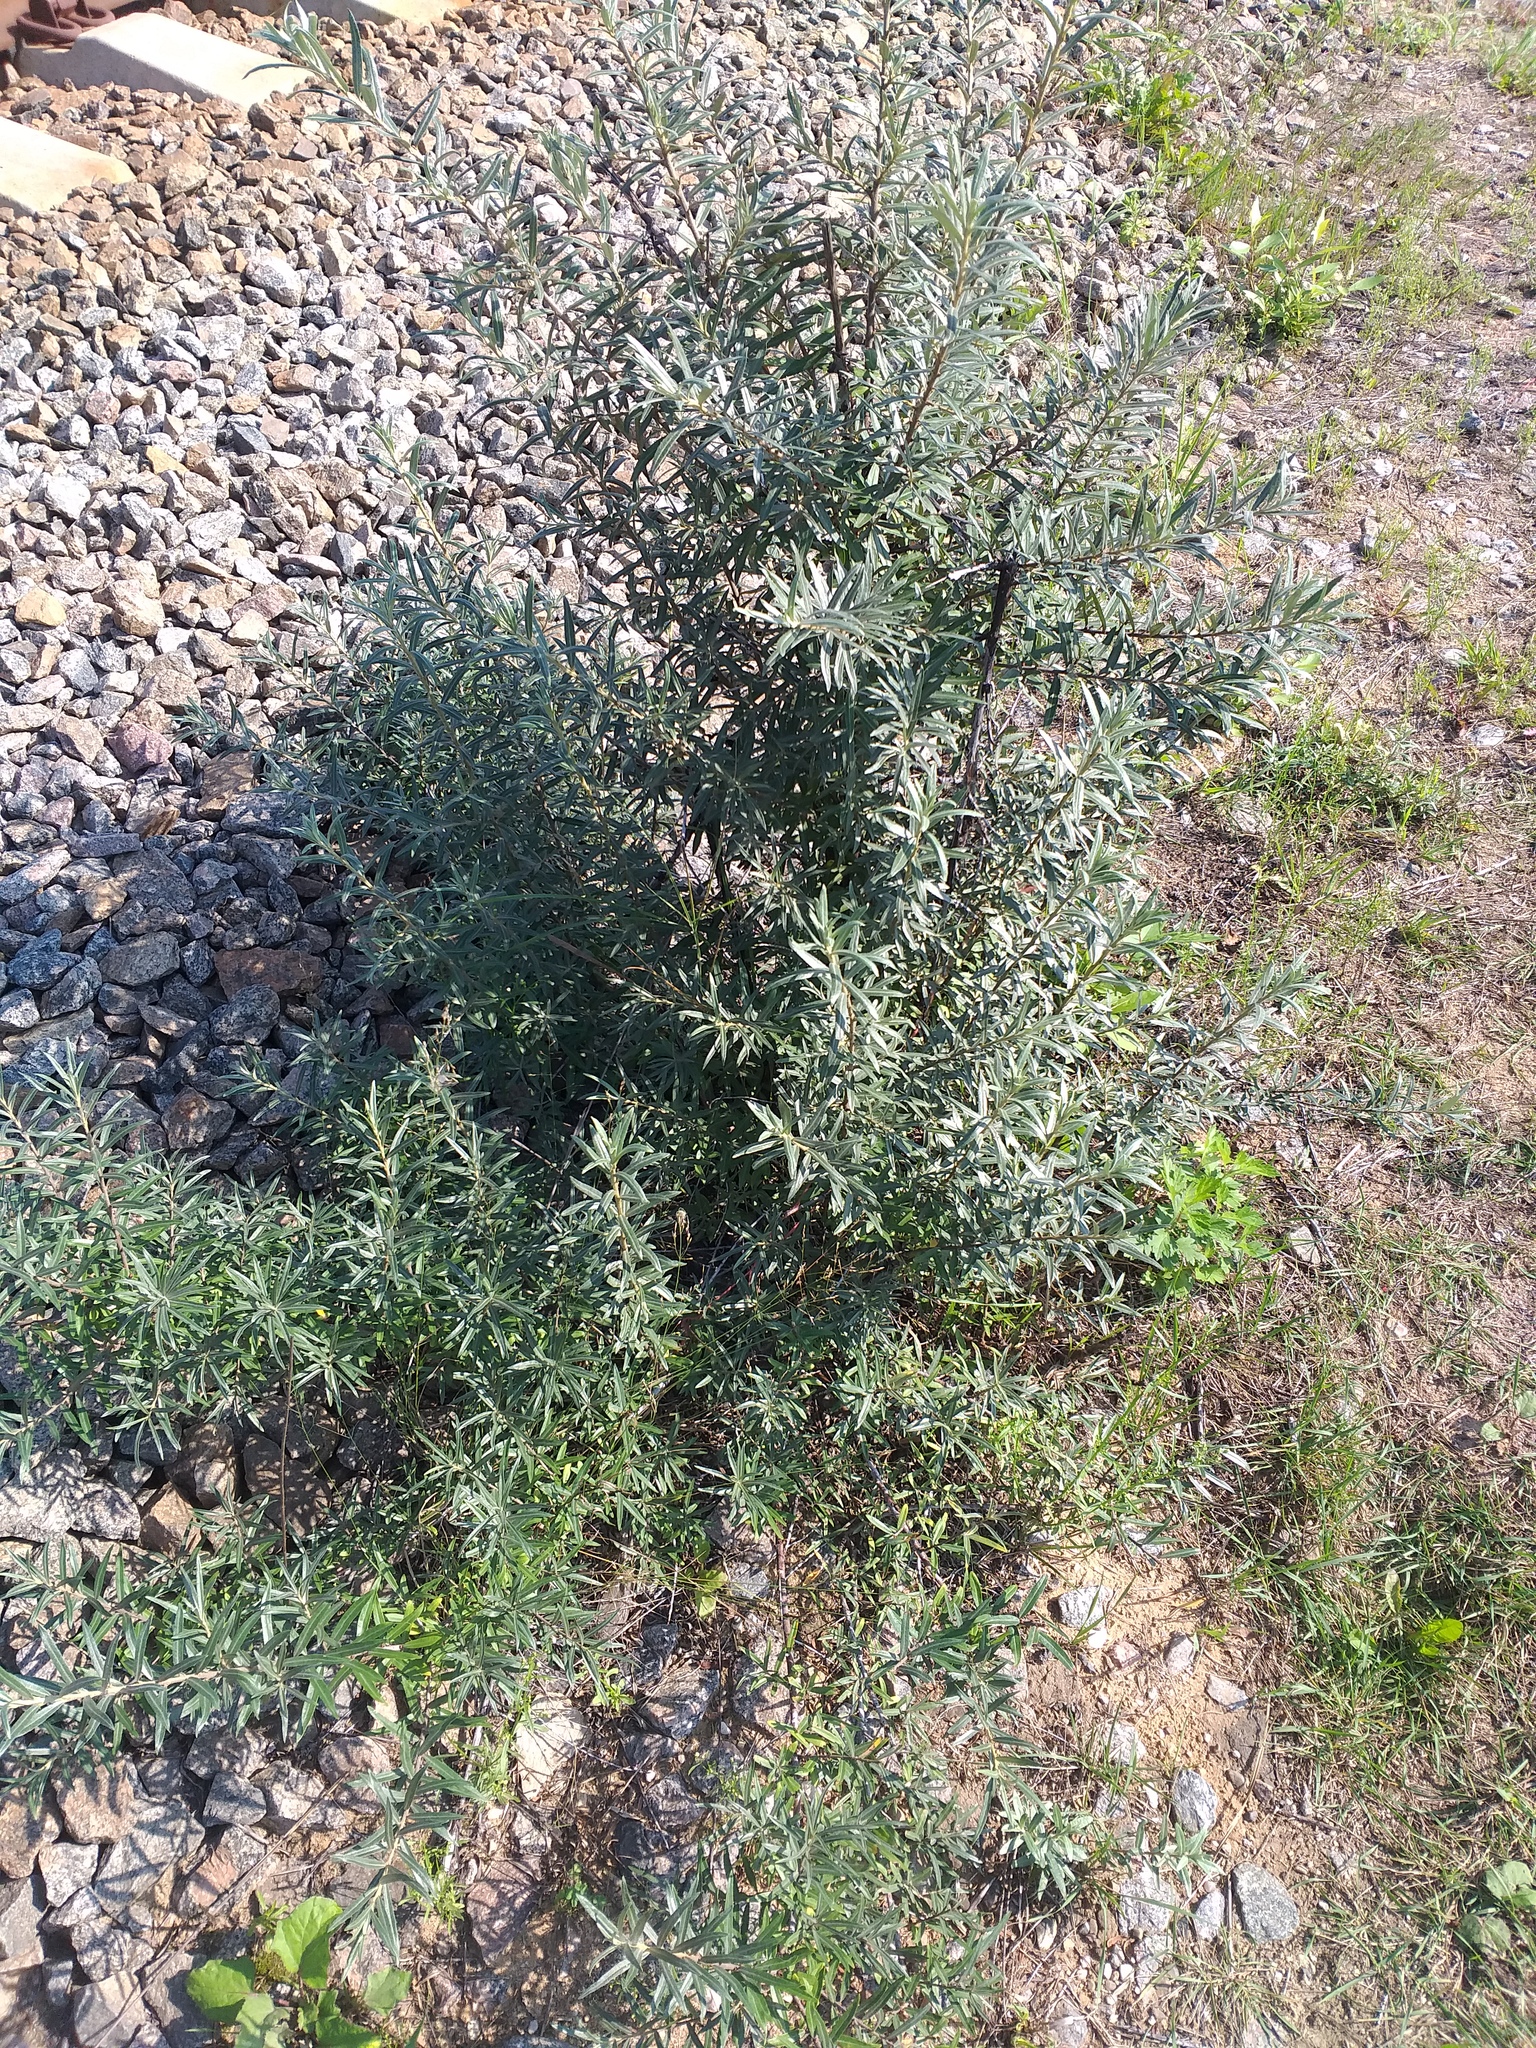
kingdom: Plantae
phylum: Tracheophyta
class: Magnoliopsida
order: Rosales
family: Elaeagnaceae
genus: Hippophae
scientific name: Hippophae rhamnoides
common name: Sea-buckthorn
